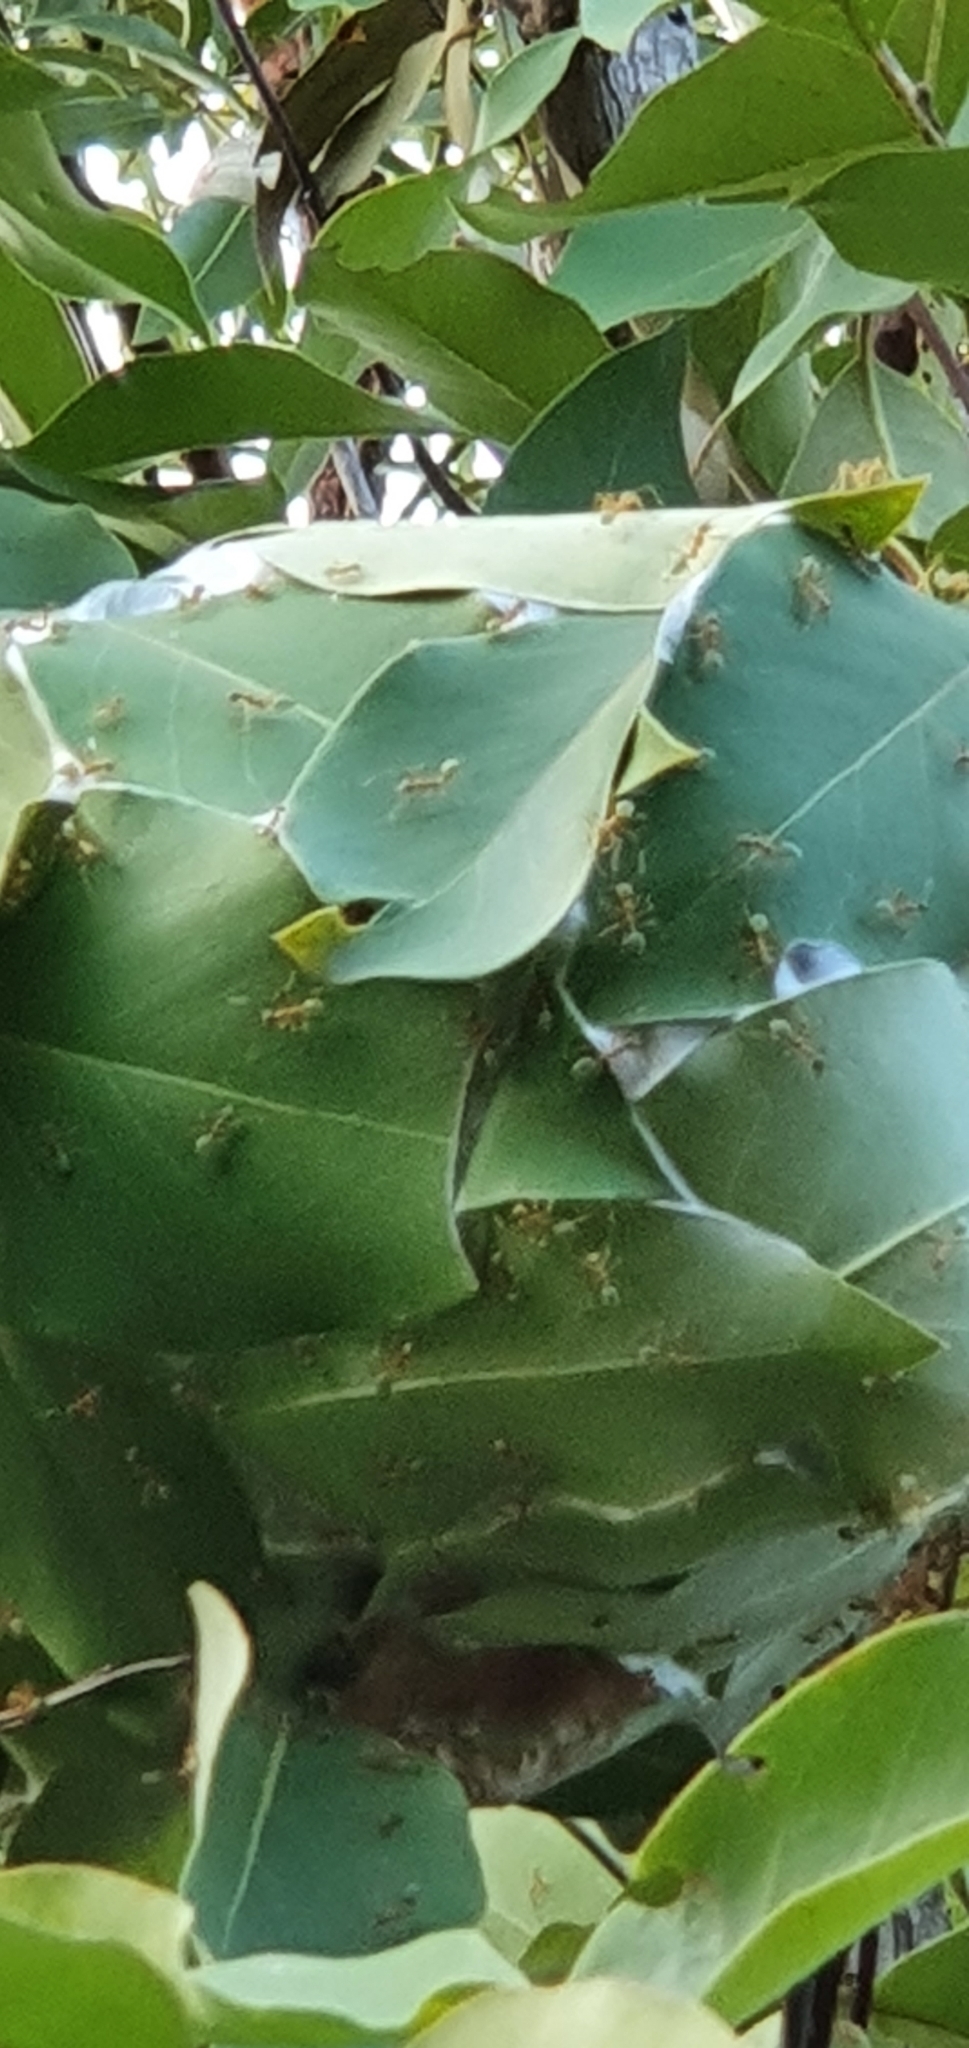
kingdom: Animalia
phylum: Arthropoda
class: Insecta
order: Hymenoptera
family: Formicidae
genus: Oecophylla
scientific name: Oecophylla smaragdina
